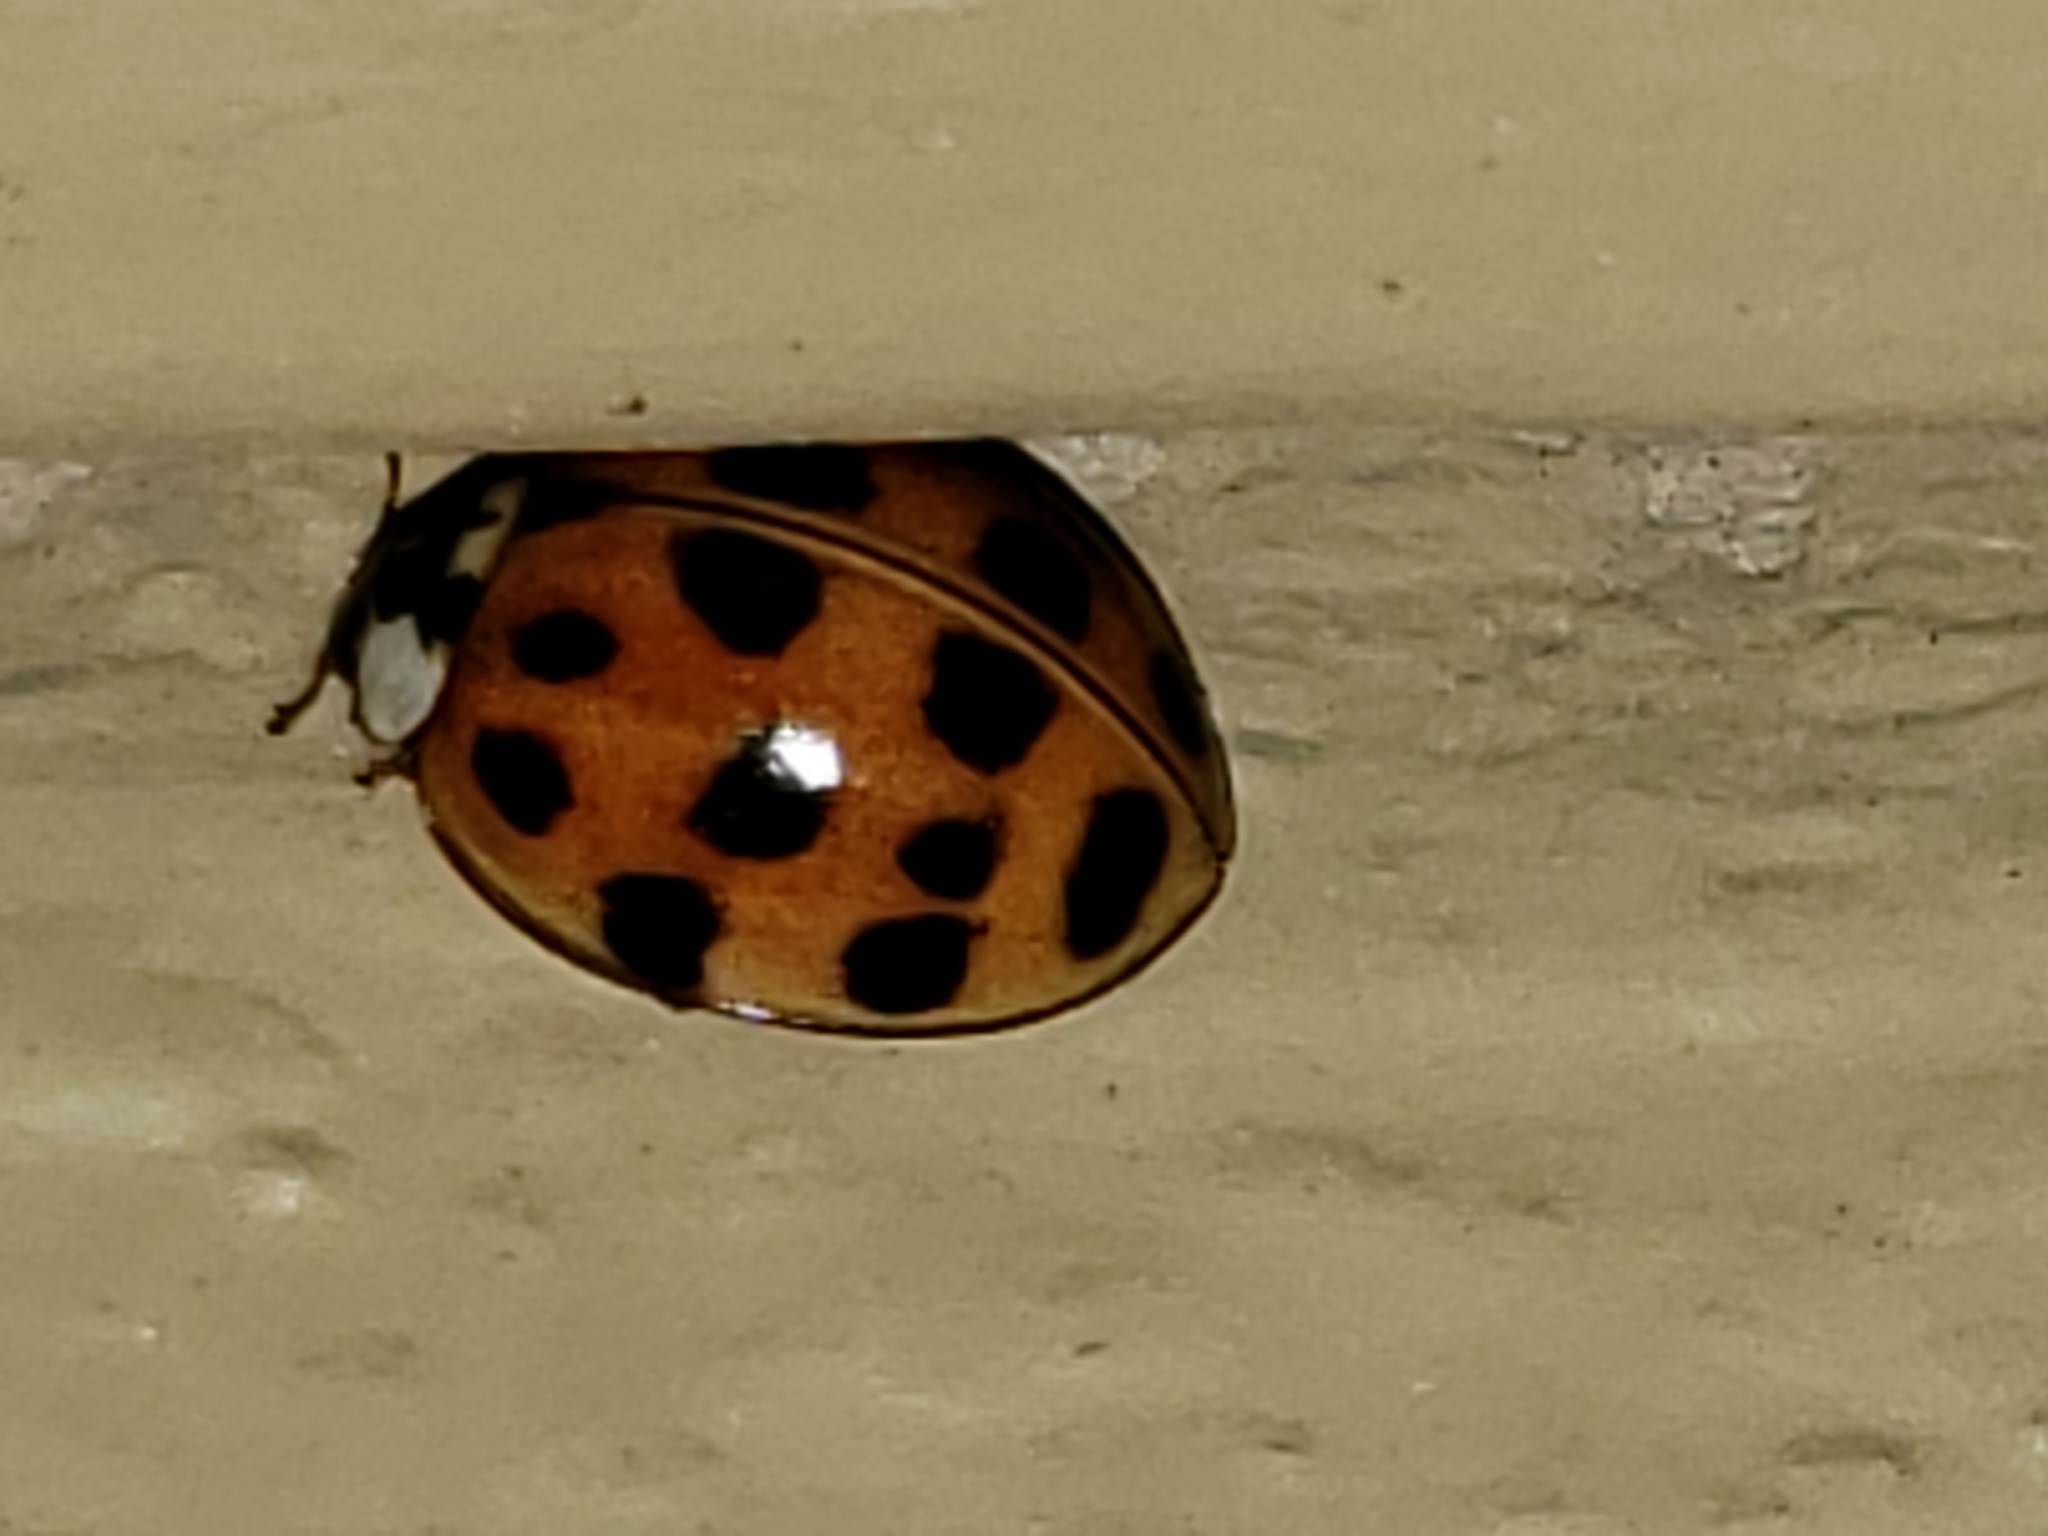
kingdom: Animalia
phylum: Arthropoda
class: Insecta
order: Coleoptera
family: Coccinellidae
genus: Harmonia
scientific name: Harmonia axyridis
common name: Harlequin ladybird
